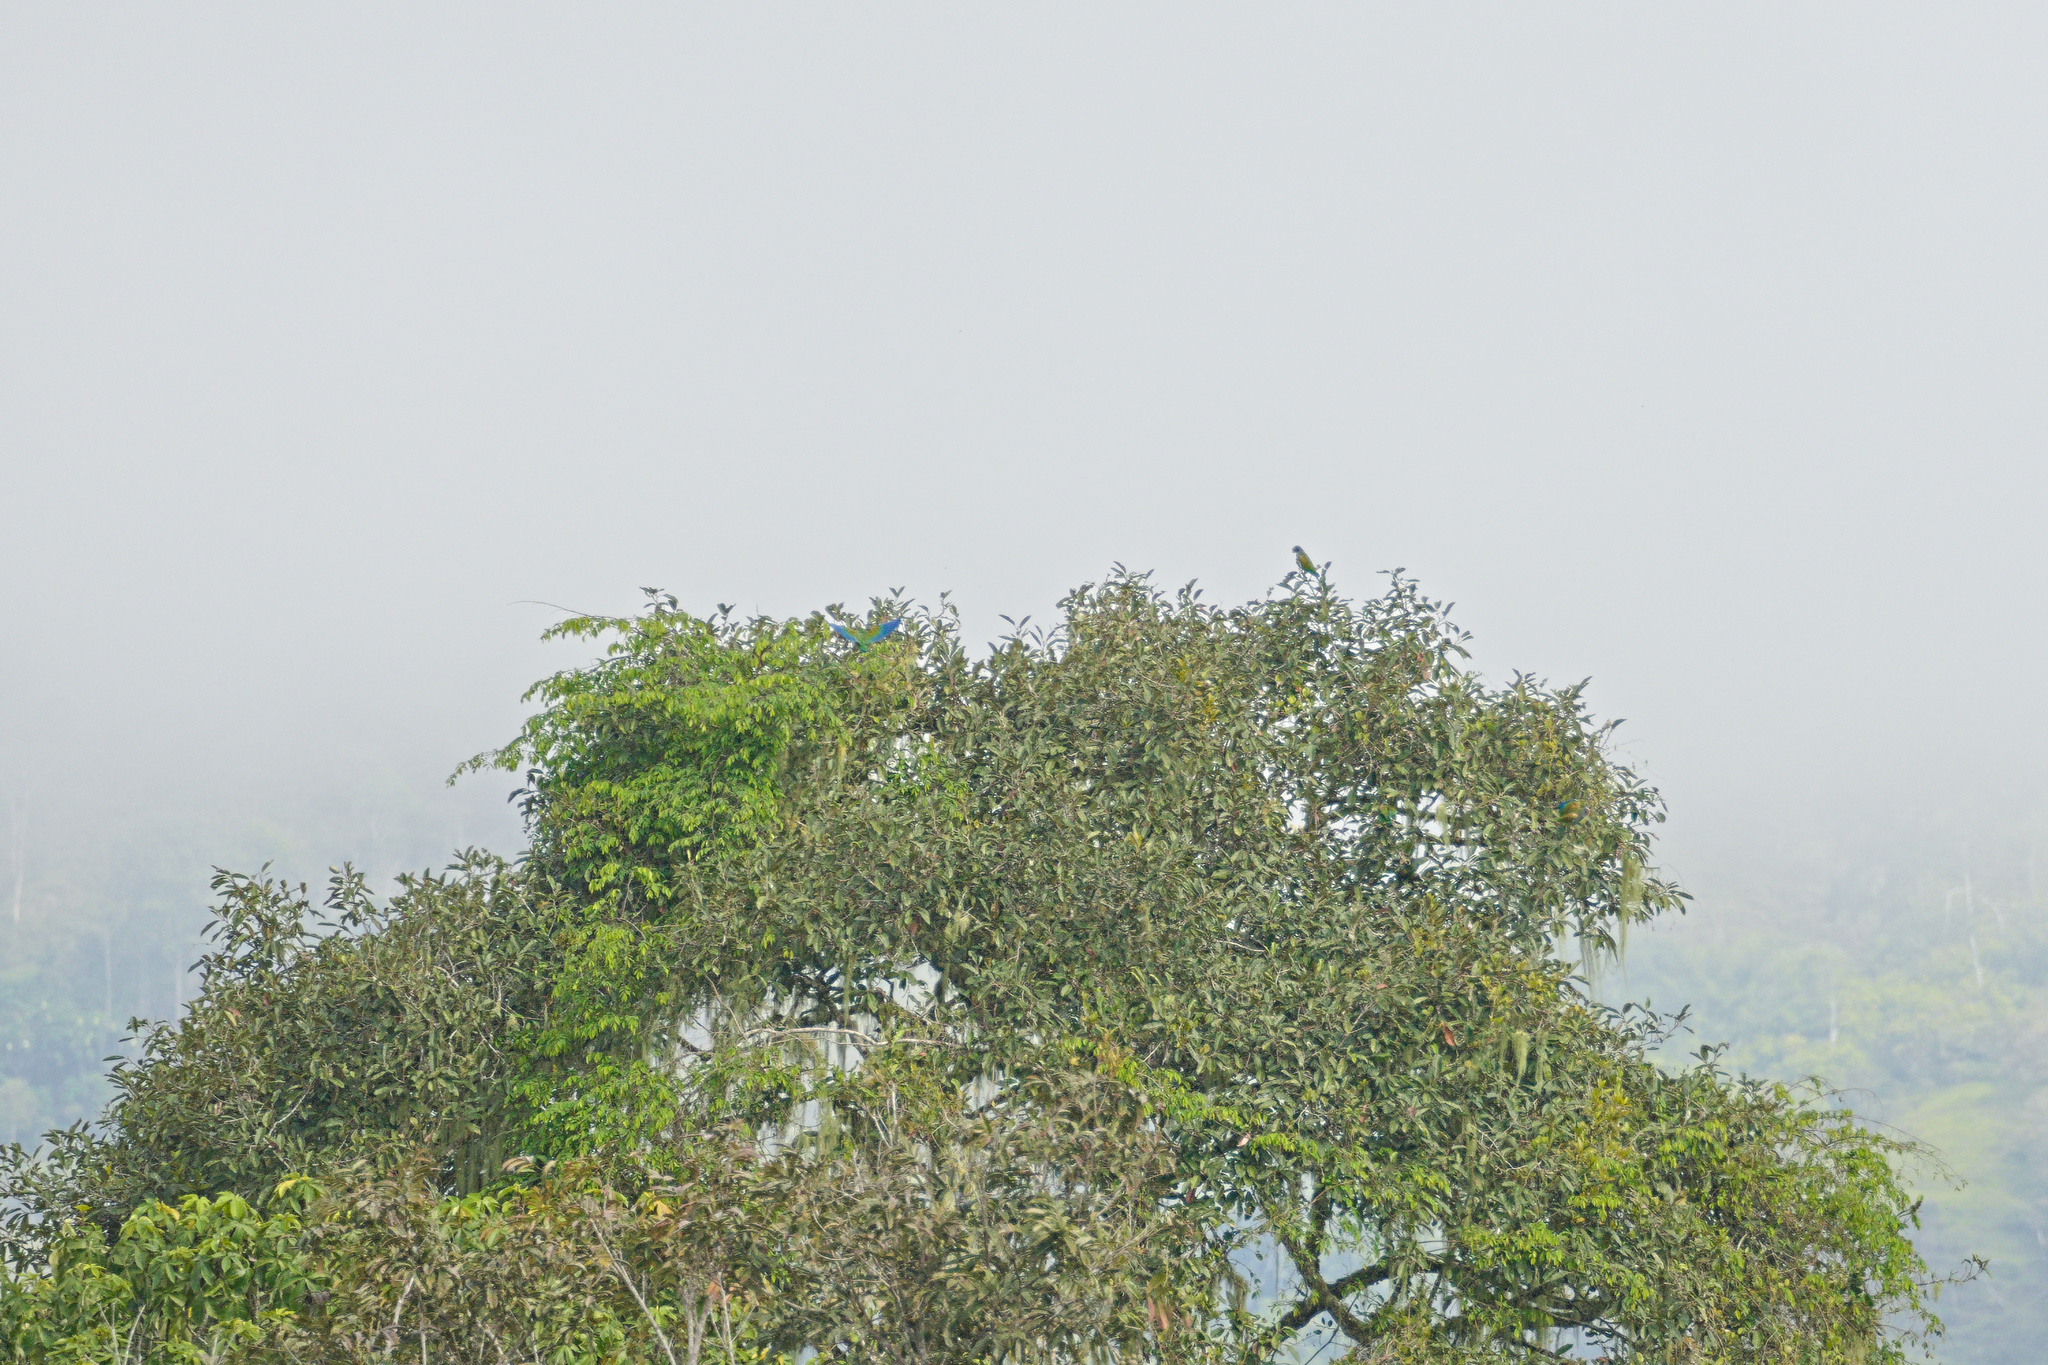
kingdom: Animalia
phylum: Chordata
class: Aves
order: Psittaciformes
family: Psittacidae
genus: Pionus
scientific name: Pionus senilis
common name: White-crowned parrot
